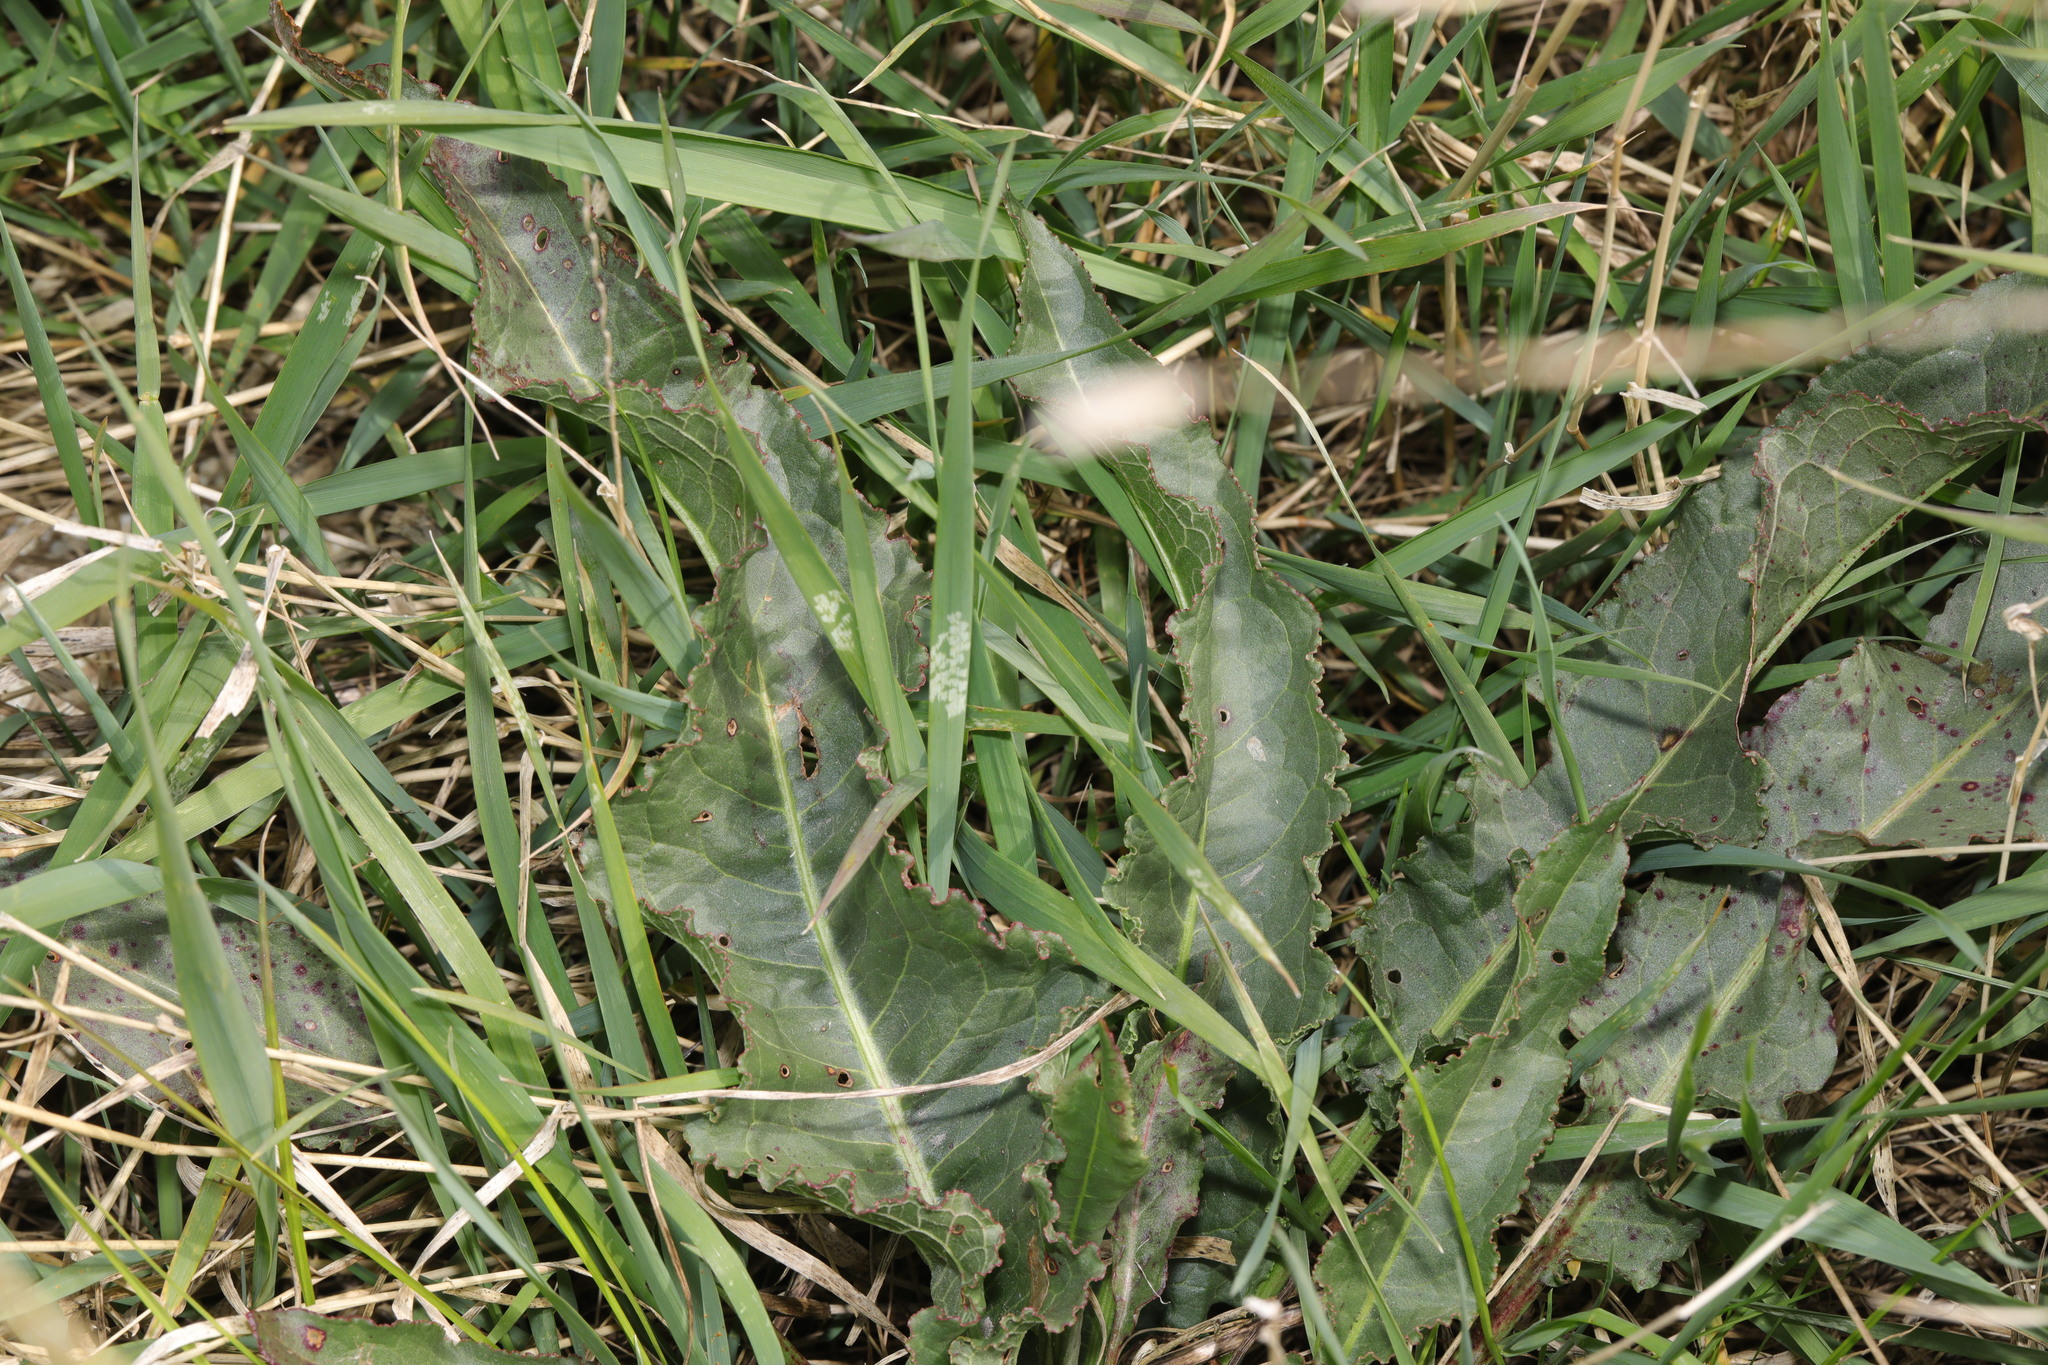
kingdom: Plantae
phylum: Tracheophyta
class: Magnoliopsida
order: Caryophyllales
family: Polygonaceae
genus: Rumex
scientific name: Rumex crispus
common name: Curled dock
